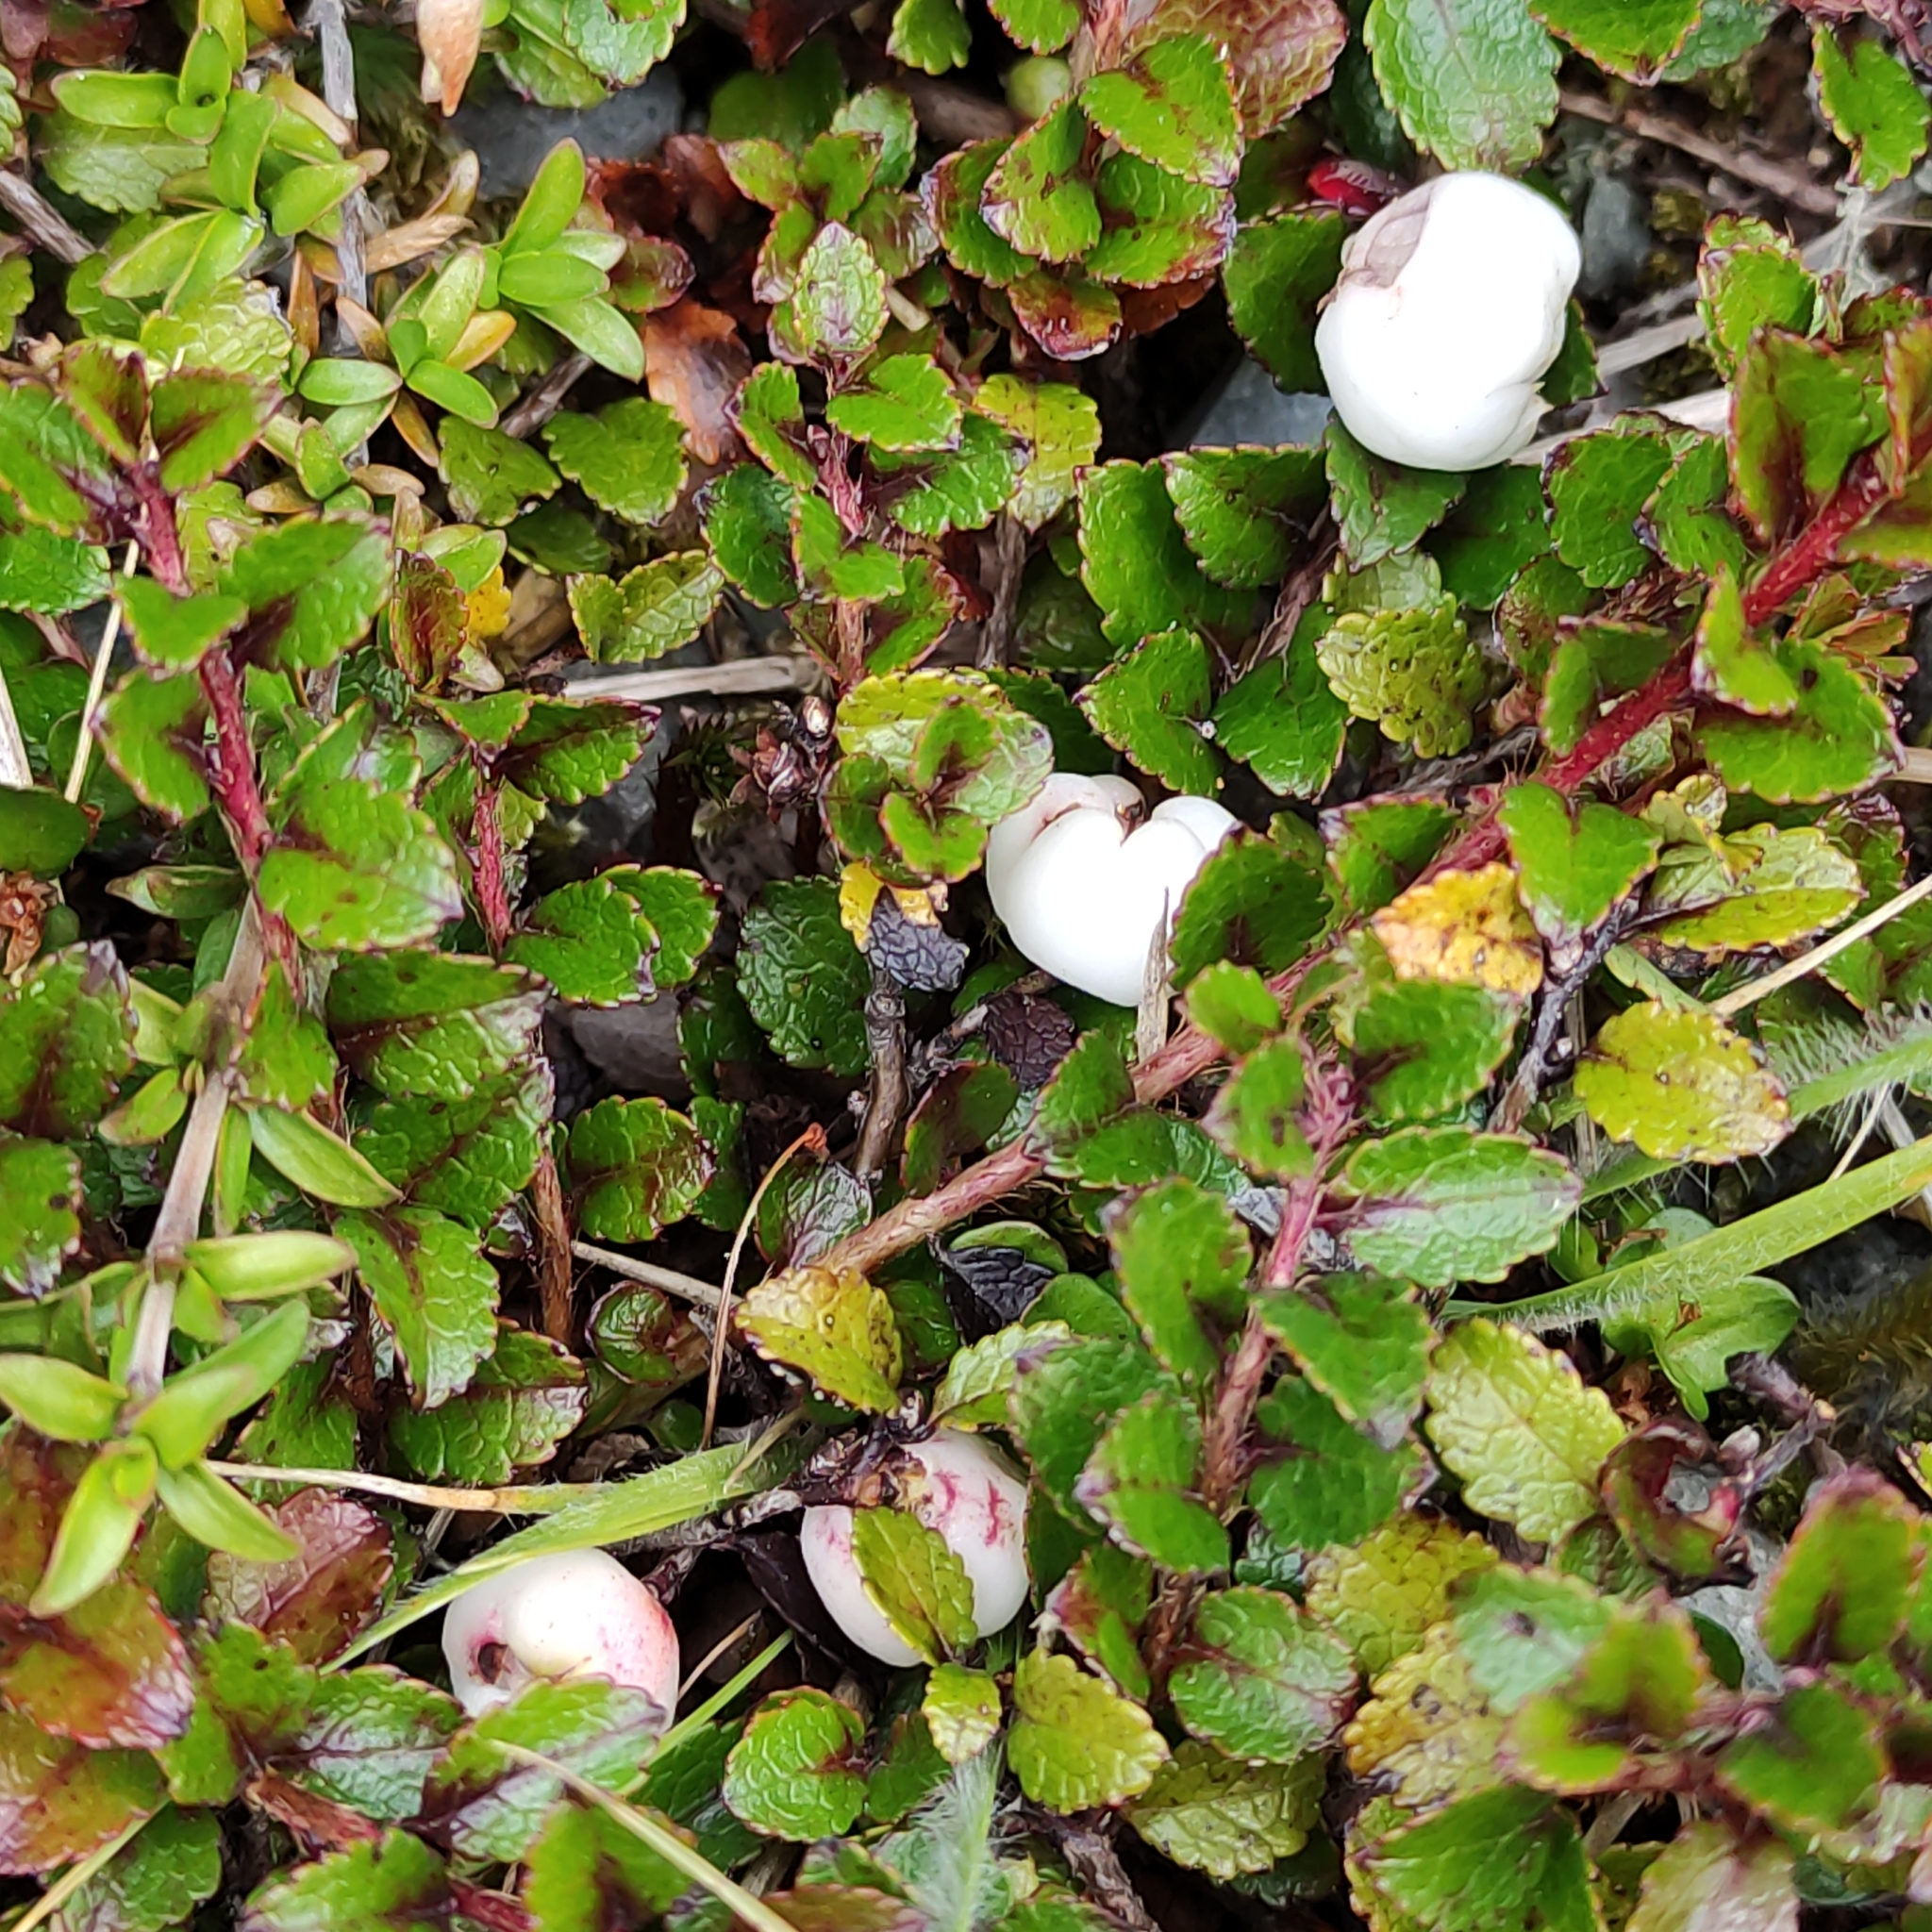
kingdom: Plantae
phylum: Tracheophyta
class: Magnoliopsida
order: Ericales
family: Ericaceae
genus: Gaultheria
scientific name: Gaultheria depressa
